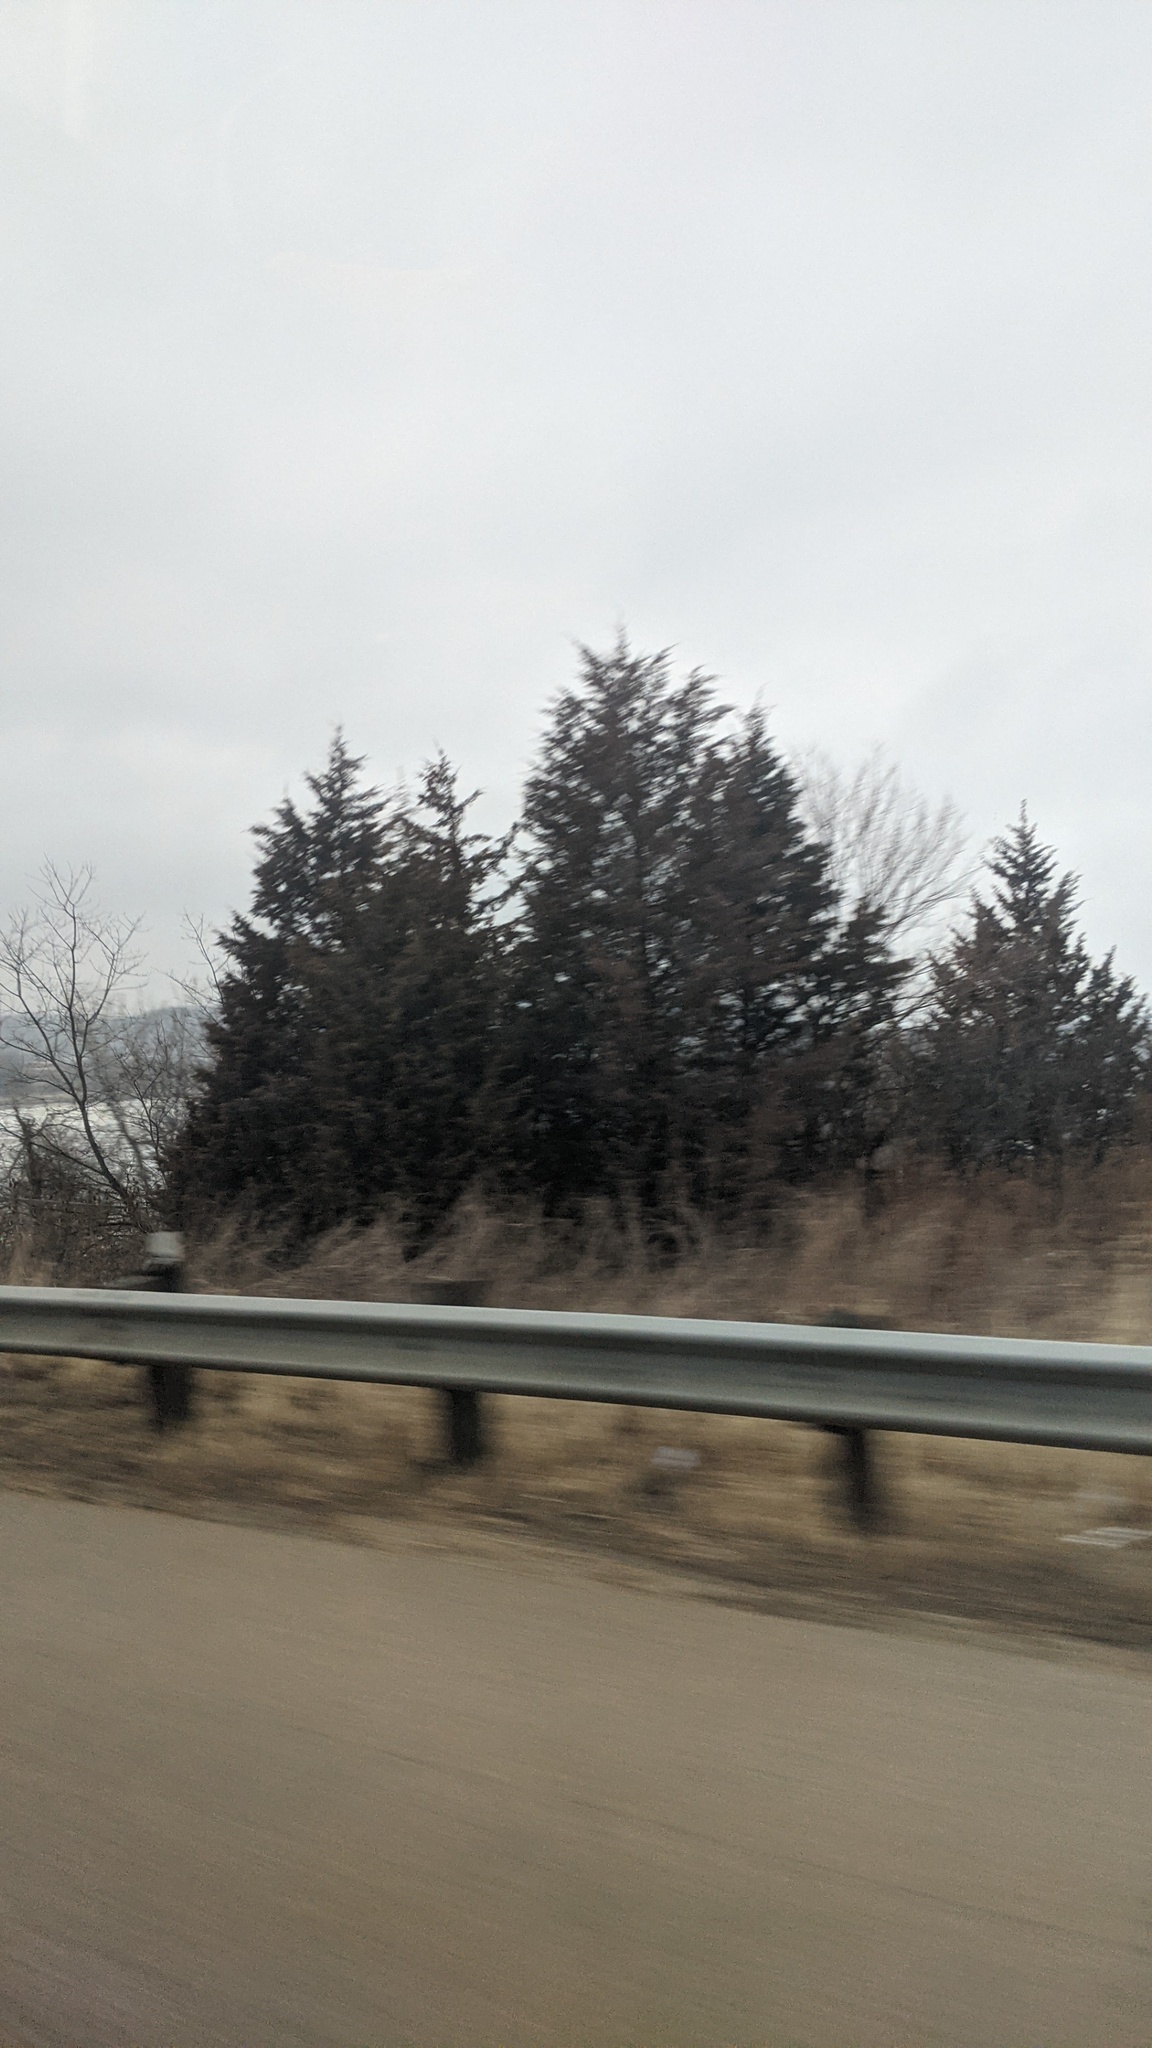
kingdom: Plantae
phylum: Tracheophyta
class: Pinopsida
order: Pinales
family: Cupressaceae
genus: Juniperus
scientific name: Juniperus virginiana
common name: Red juniper
